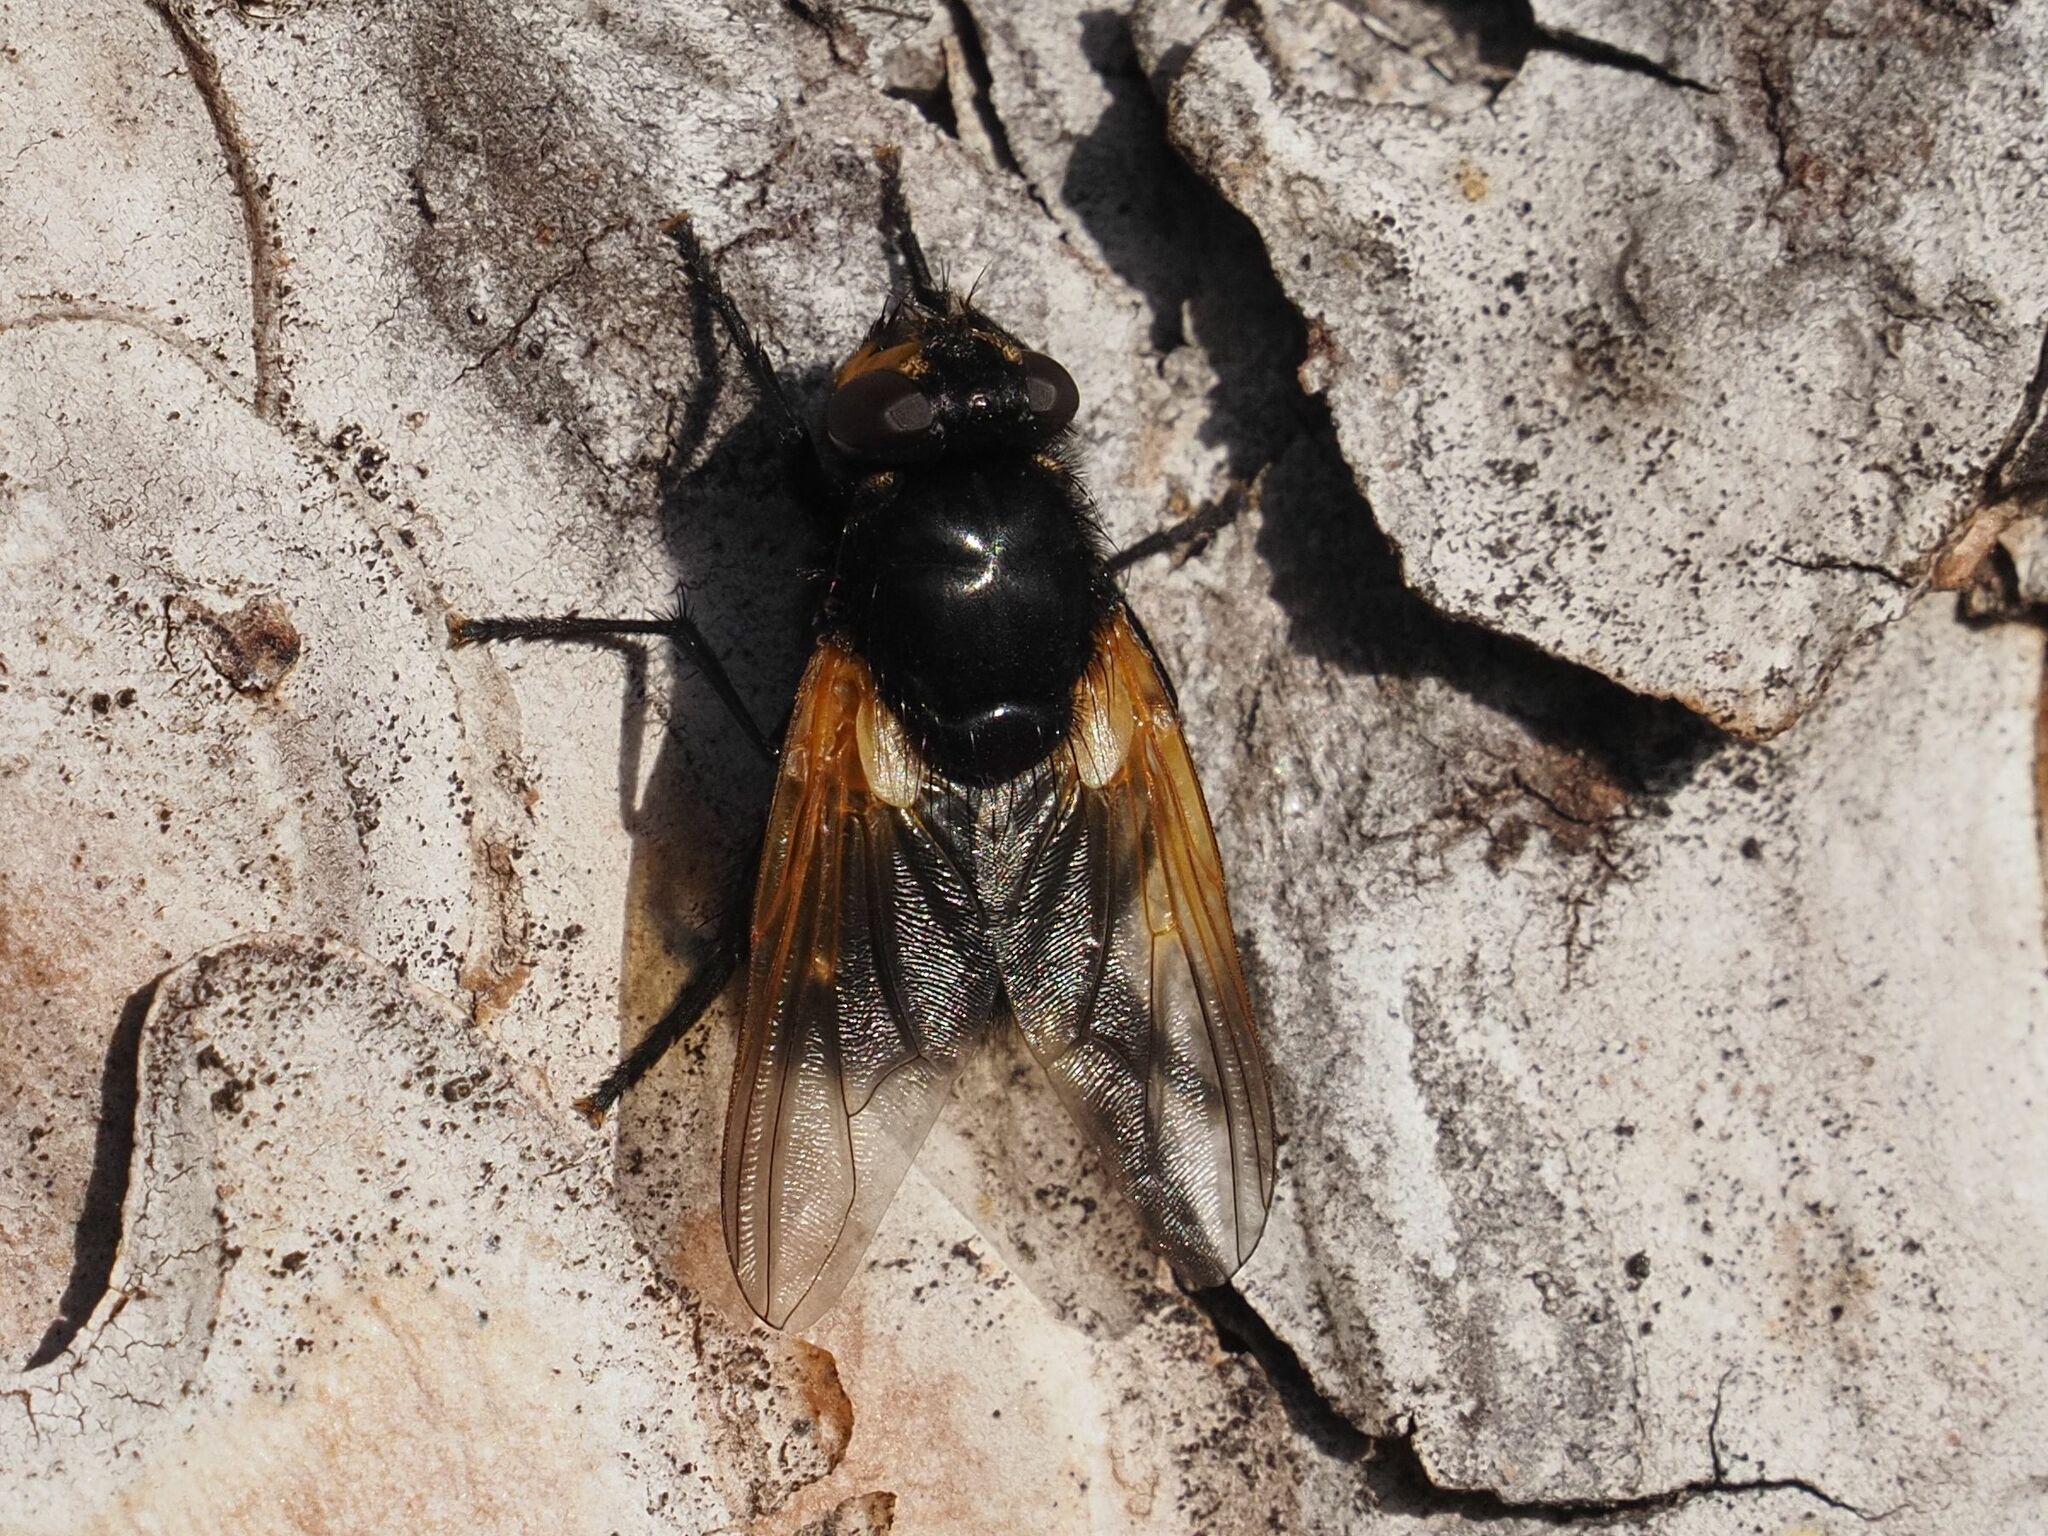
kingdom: Animalia
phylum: Arthropoda
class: Insecta
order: Diptera
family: Muscidae
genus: Mesembrina
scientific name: Mesembrina meridiana
